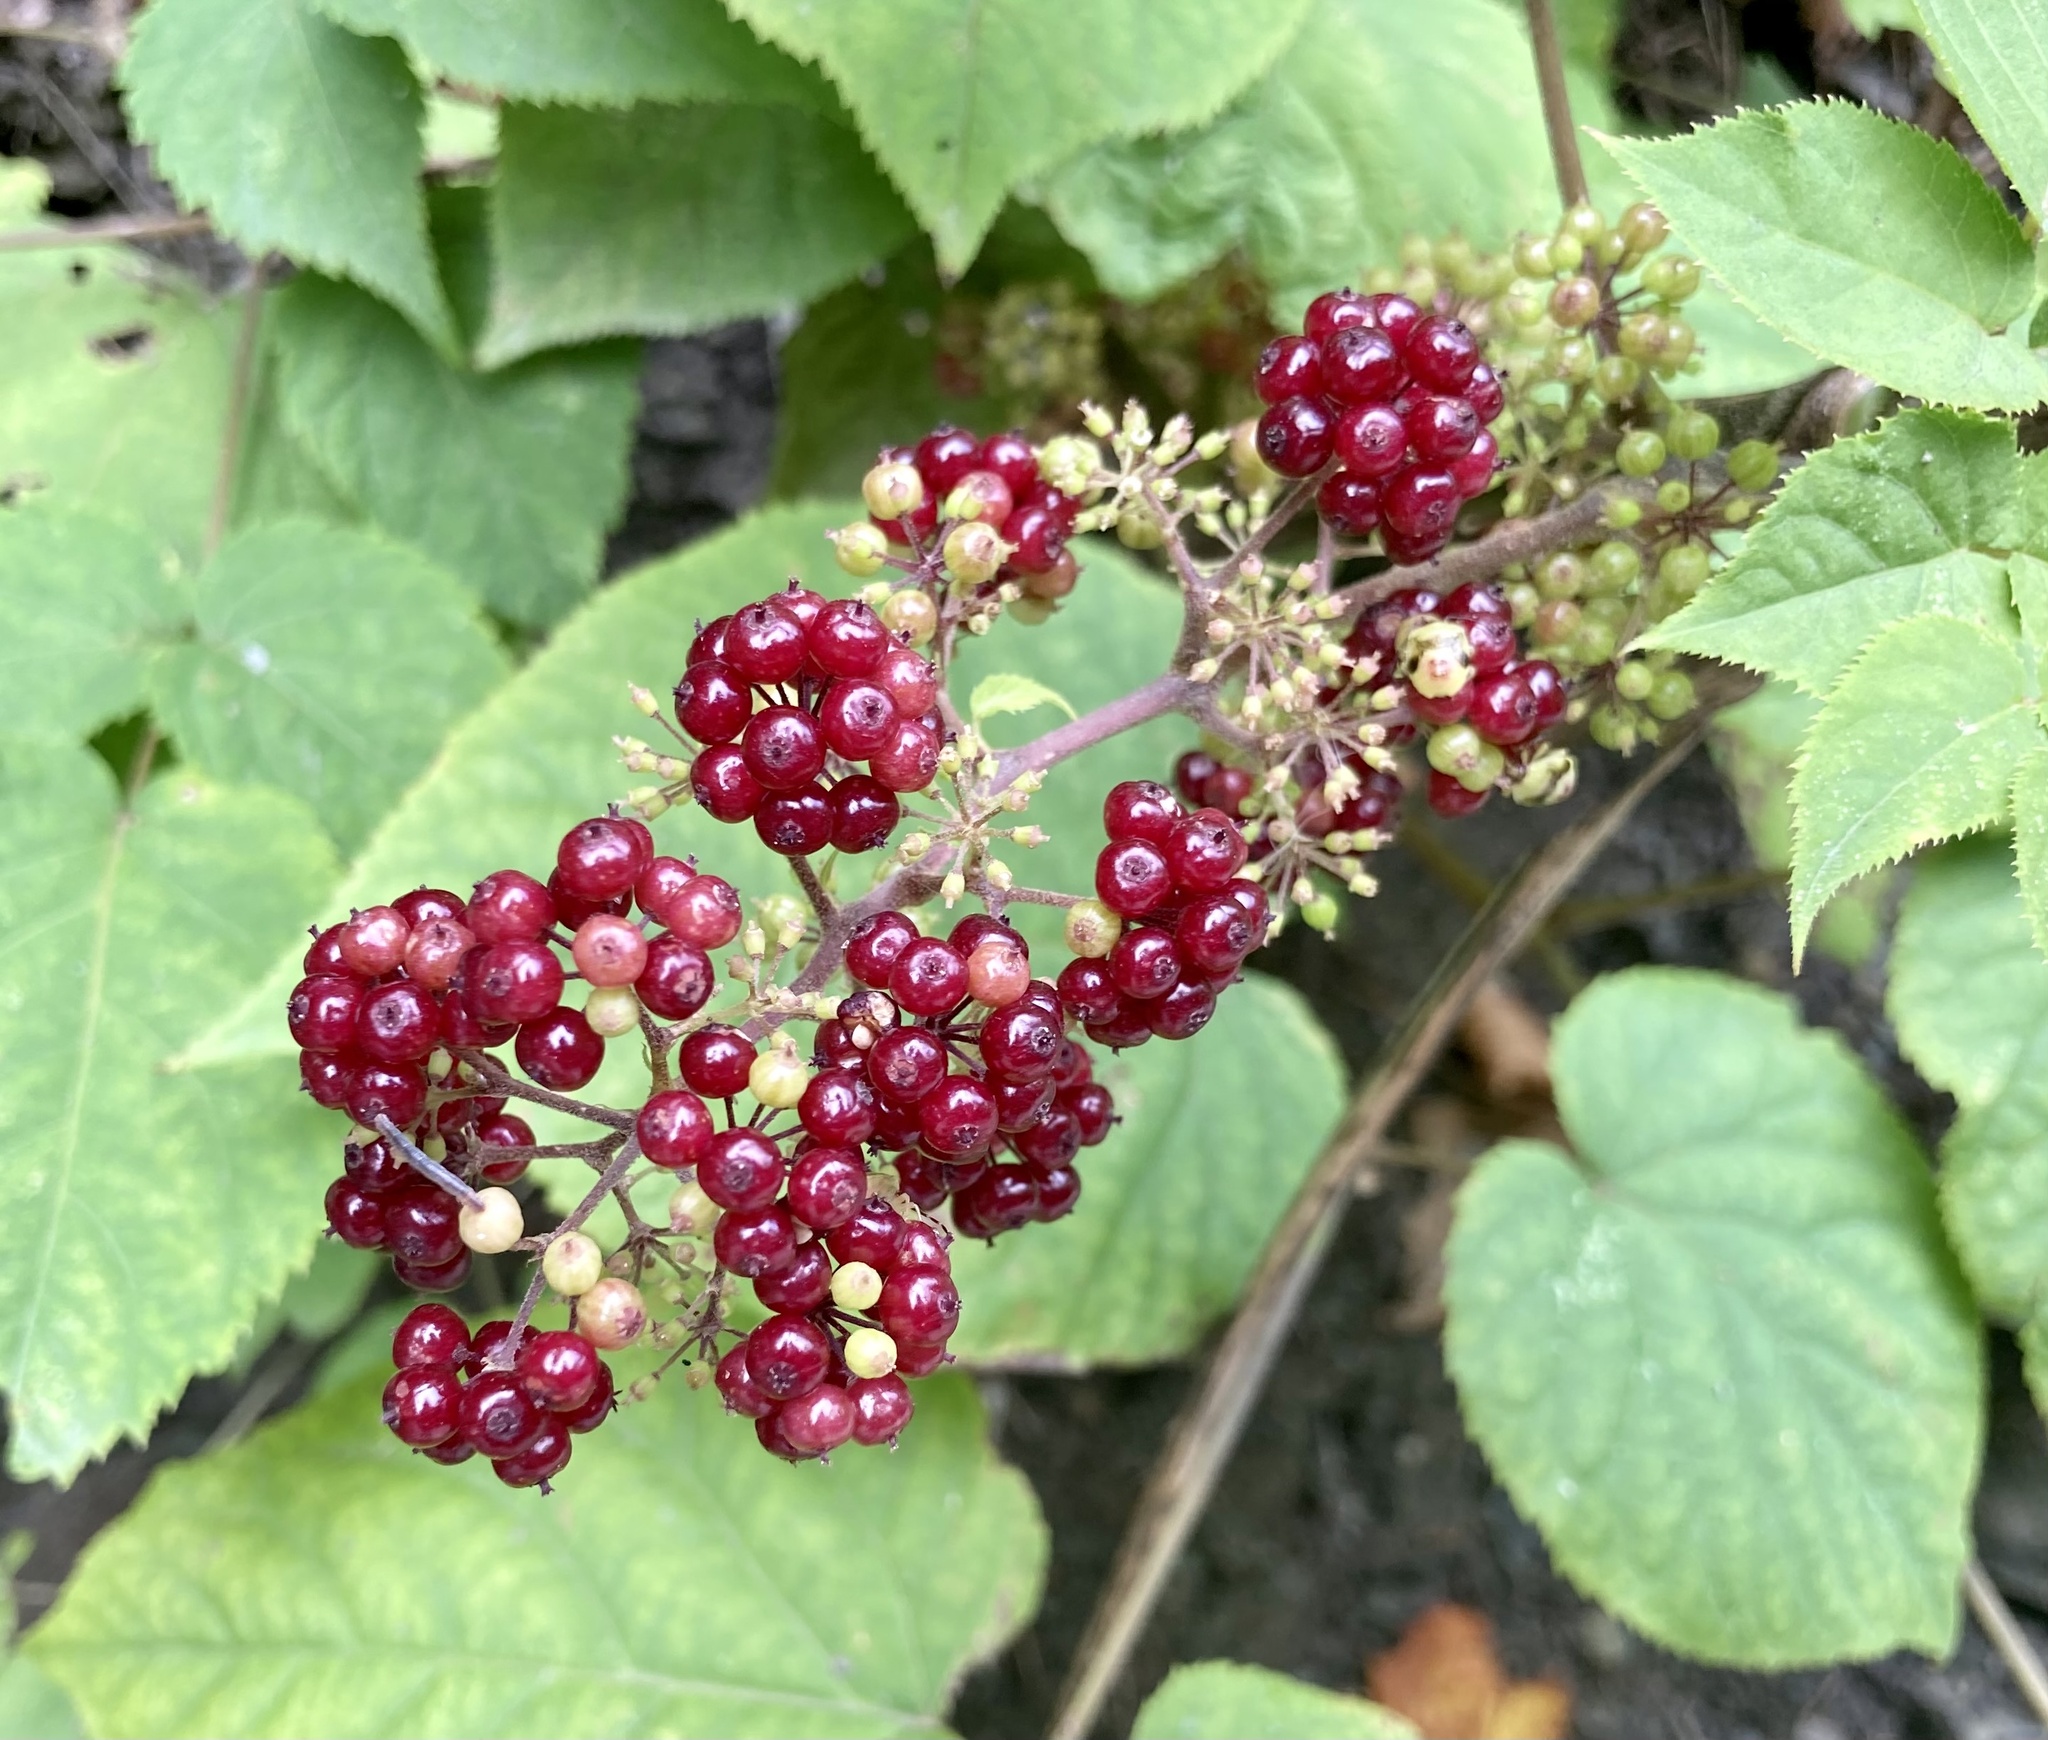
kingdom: Plantae
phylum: Tracheophyta
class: Magnoliopsida
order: Apiales
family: Araliaceae
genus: Aralia
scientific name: Aralia racemosa
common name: American-spikenard
